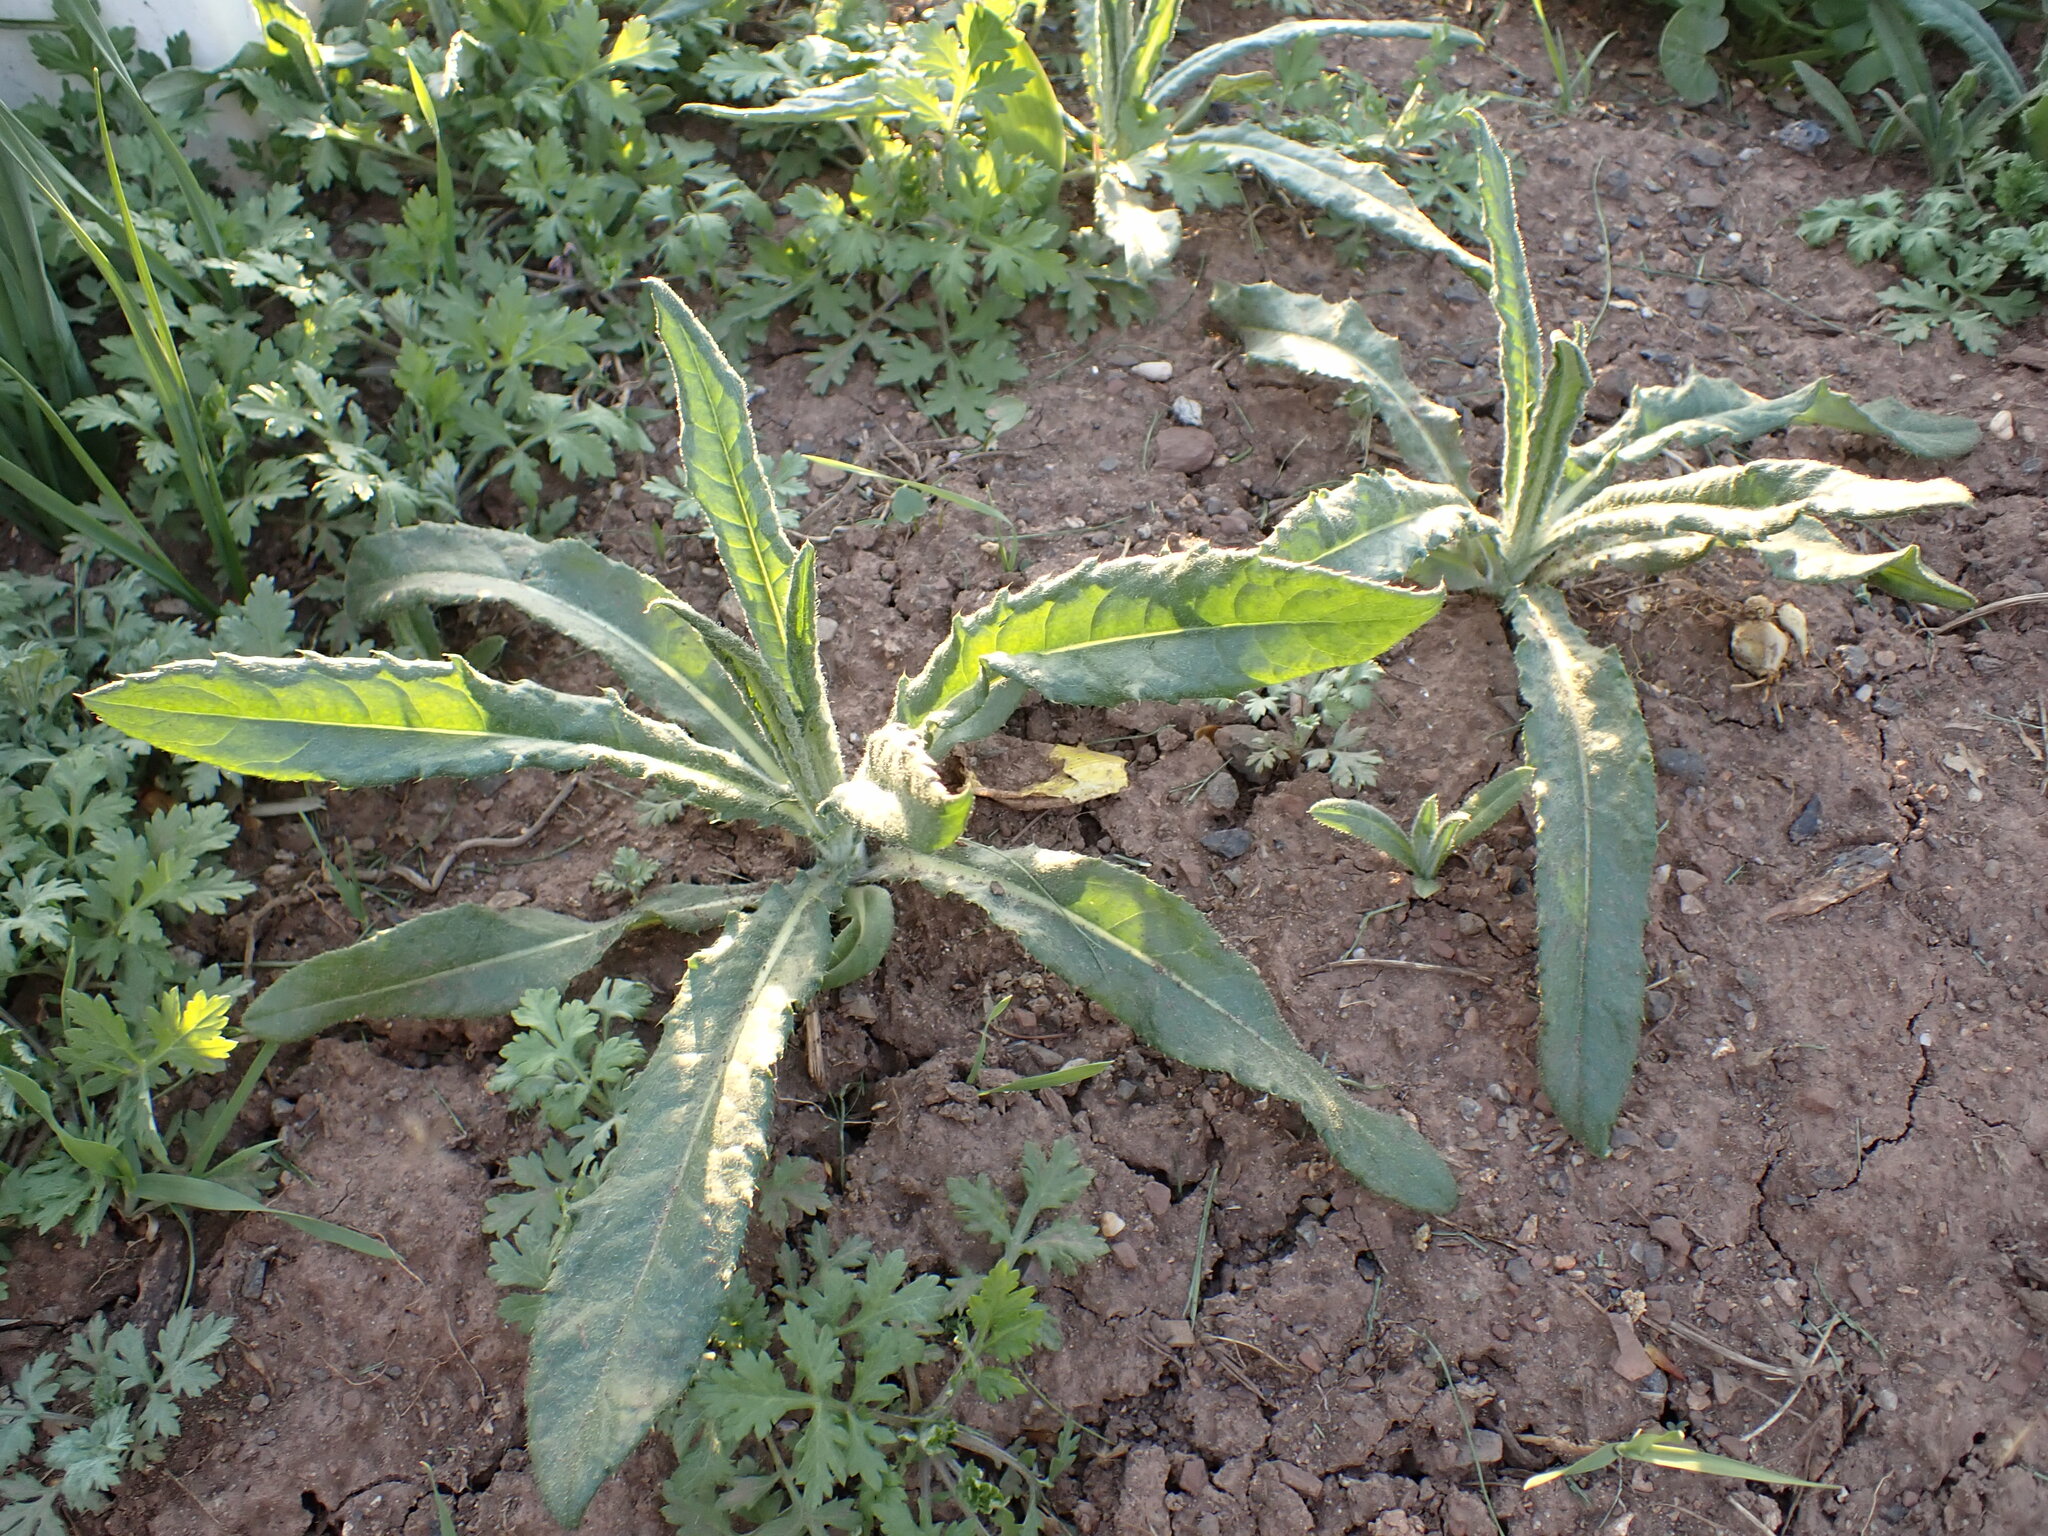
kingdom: Plantae
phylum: Tracheophyta
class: Magnoliopsida
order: Asterales
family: Asteraceae
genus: Cirsium
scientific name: Cirsium arvense
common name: Creeping thistle
